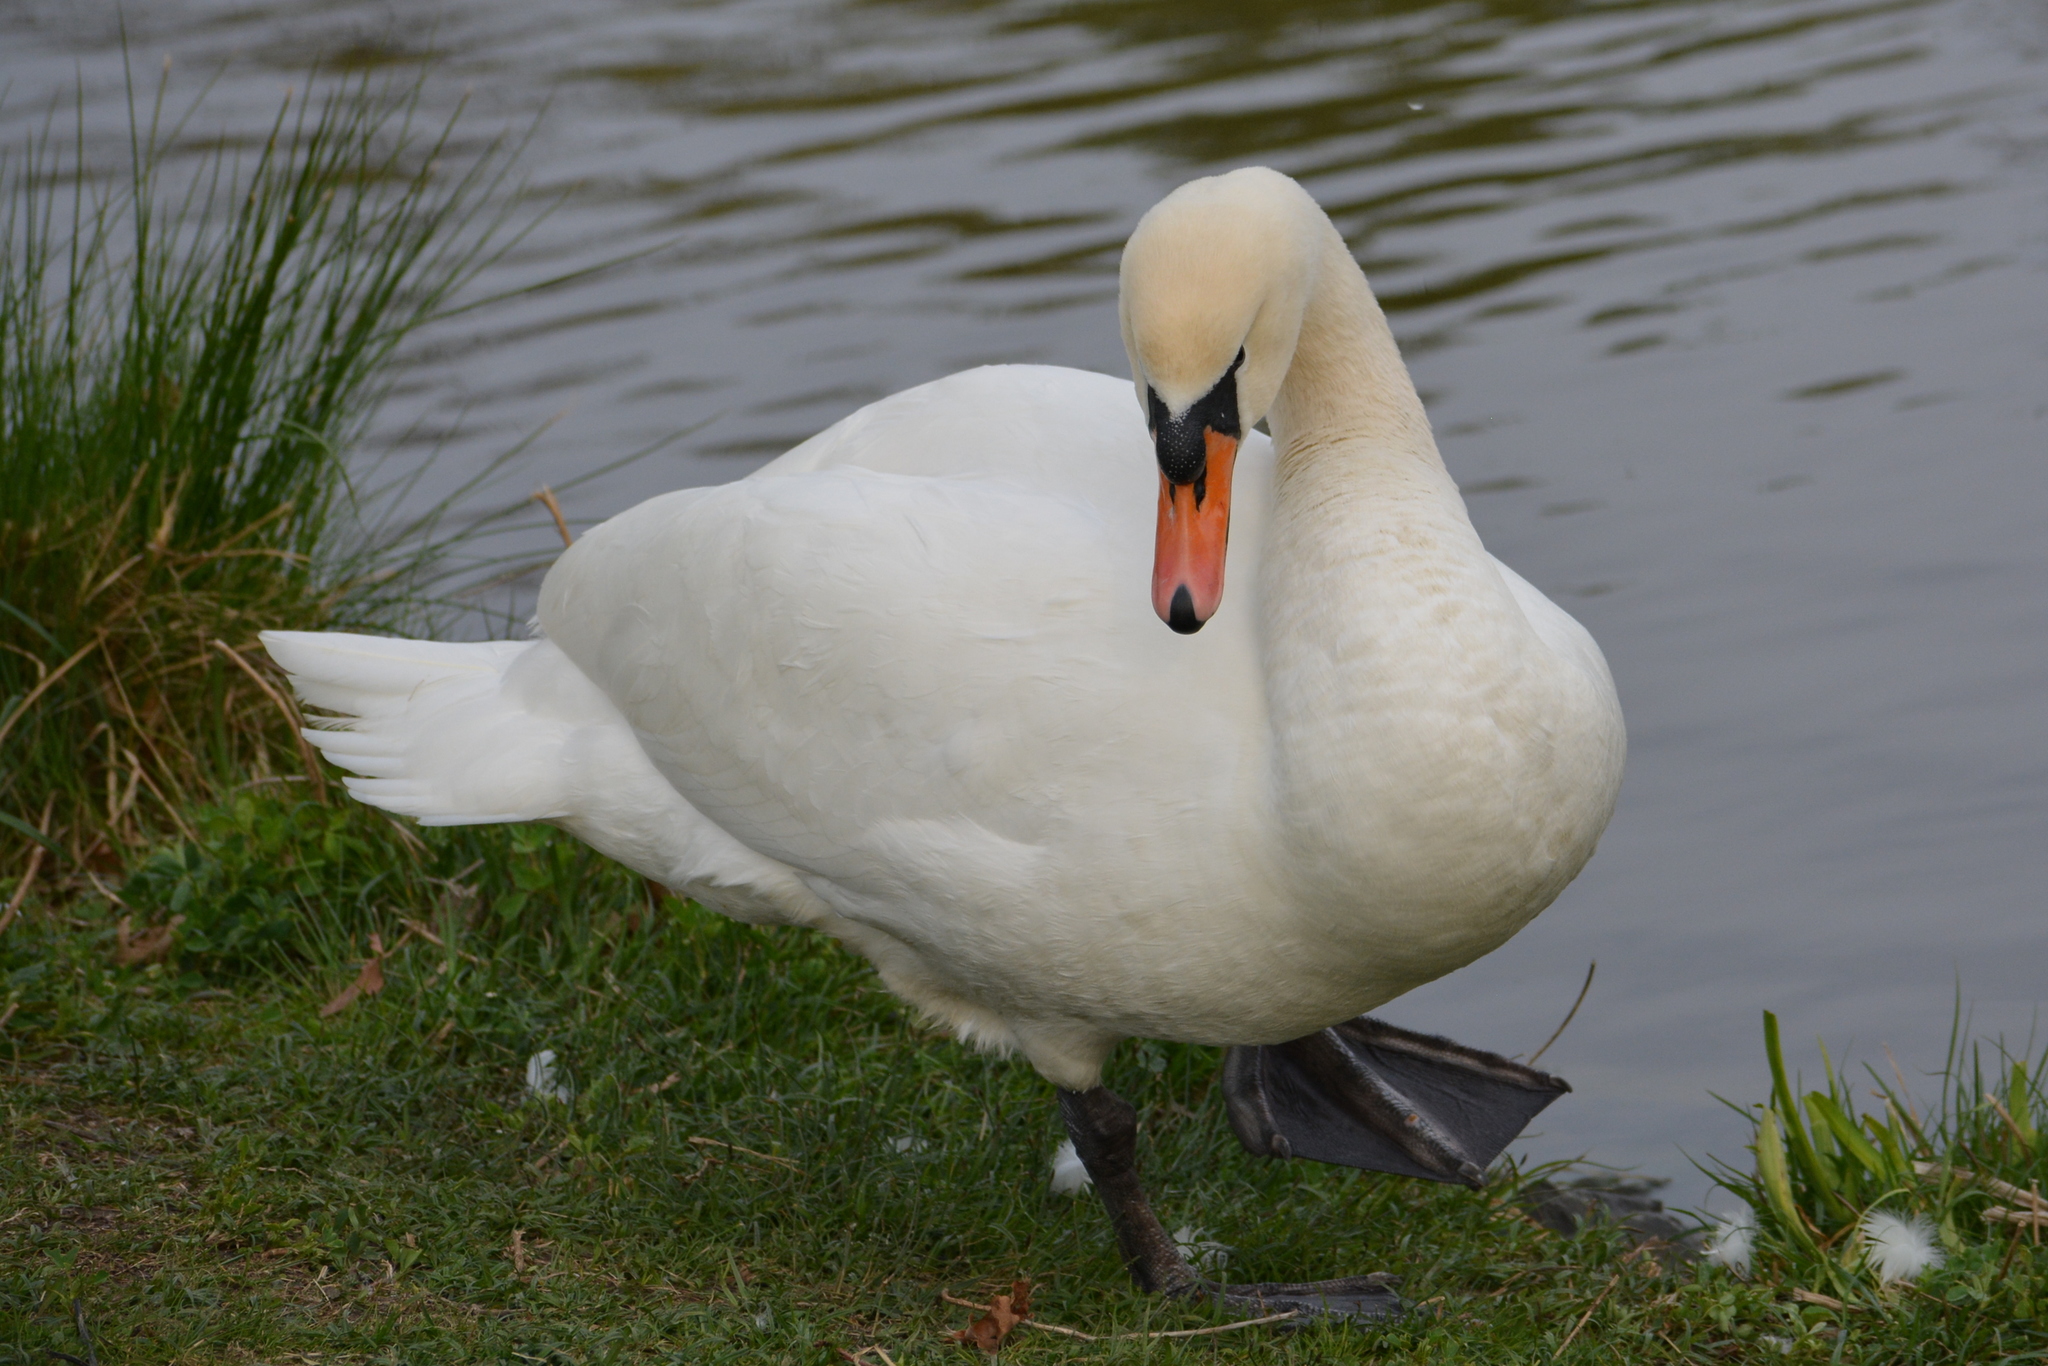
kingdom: Animalia
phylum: Chordata
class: Aves
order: Anseriformes
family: Anatidae
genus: Cygnus
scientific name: Cygnus olor
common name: Mute swan
